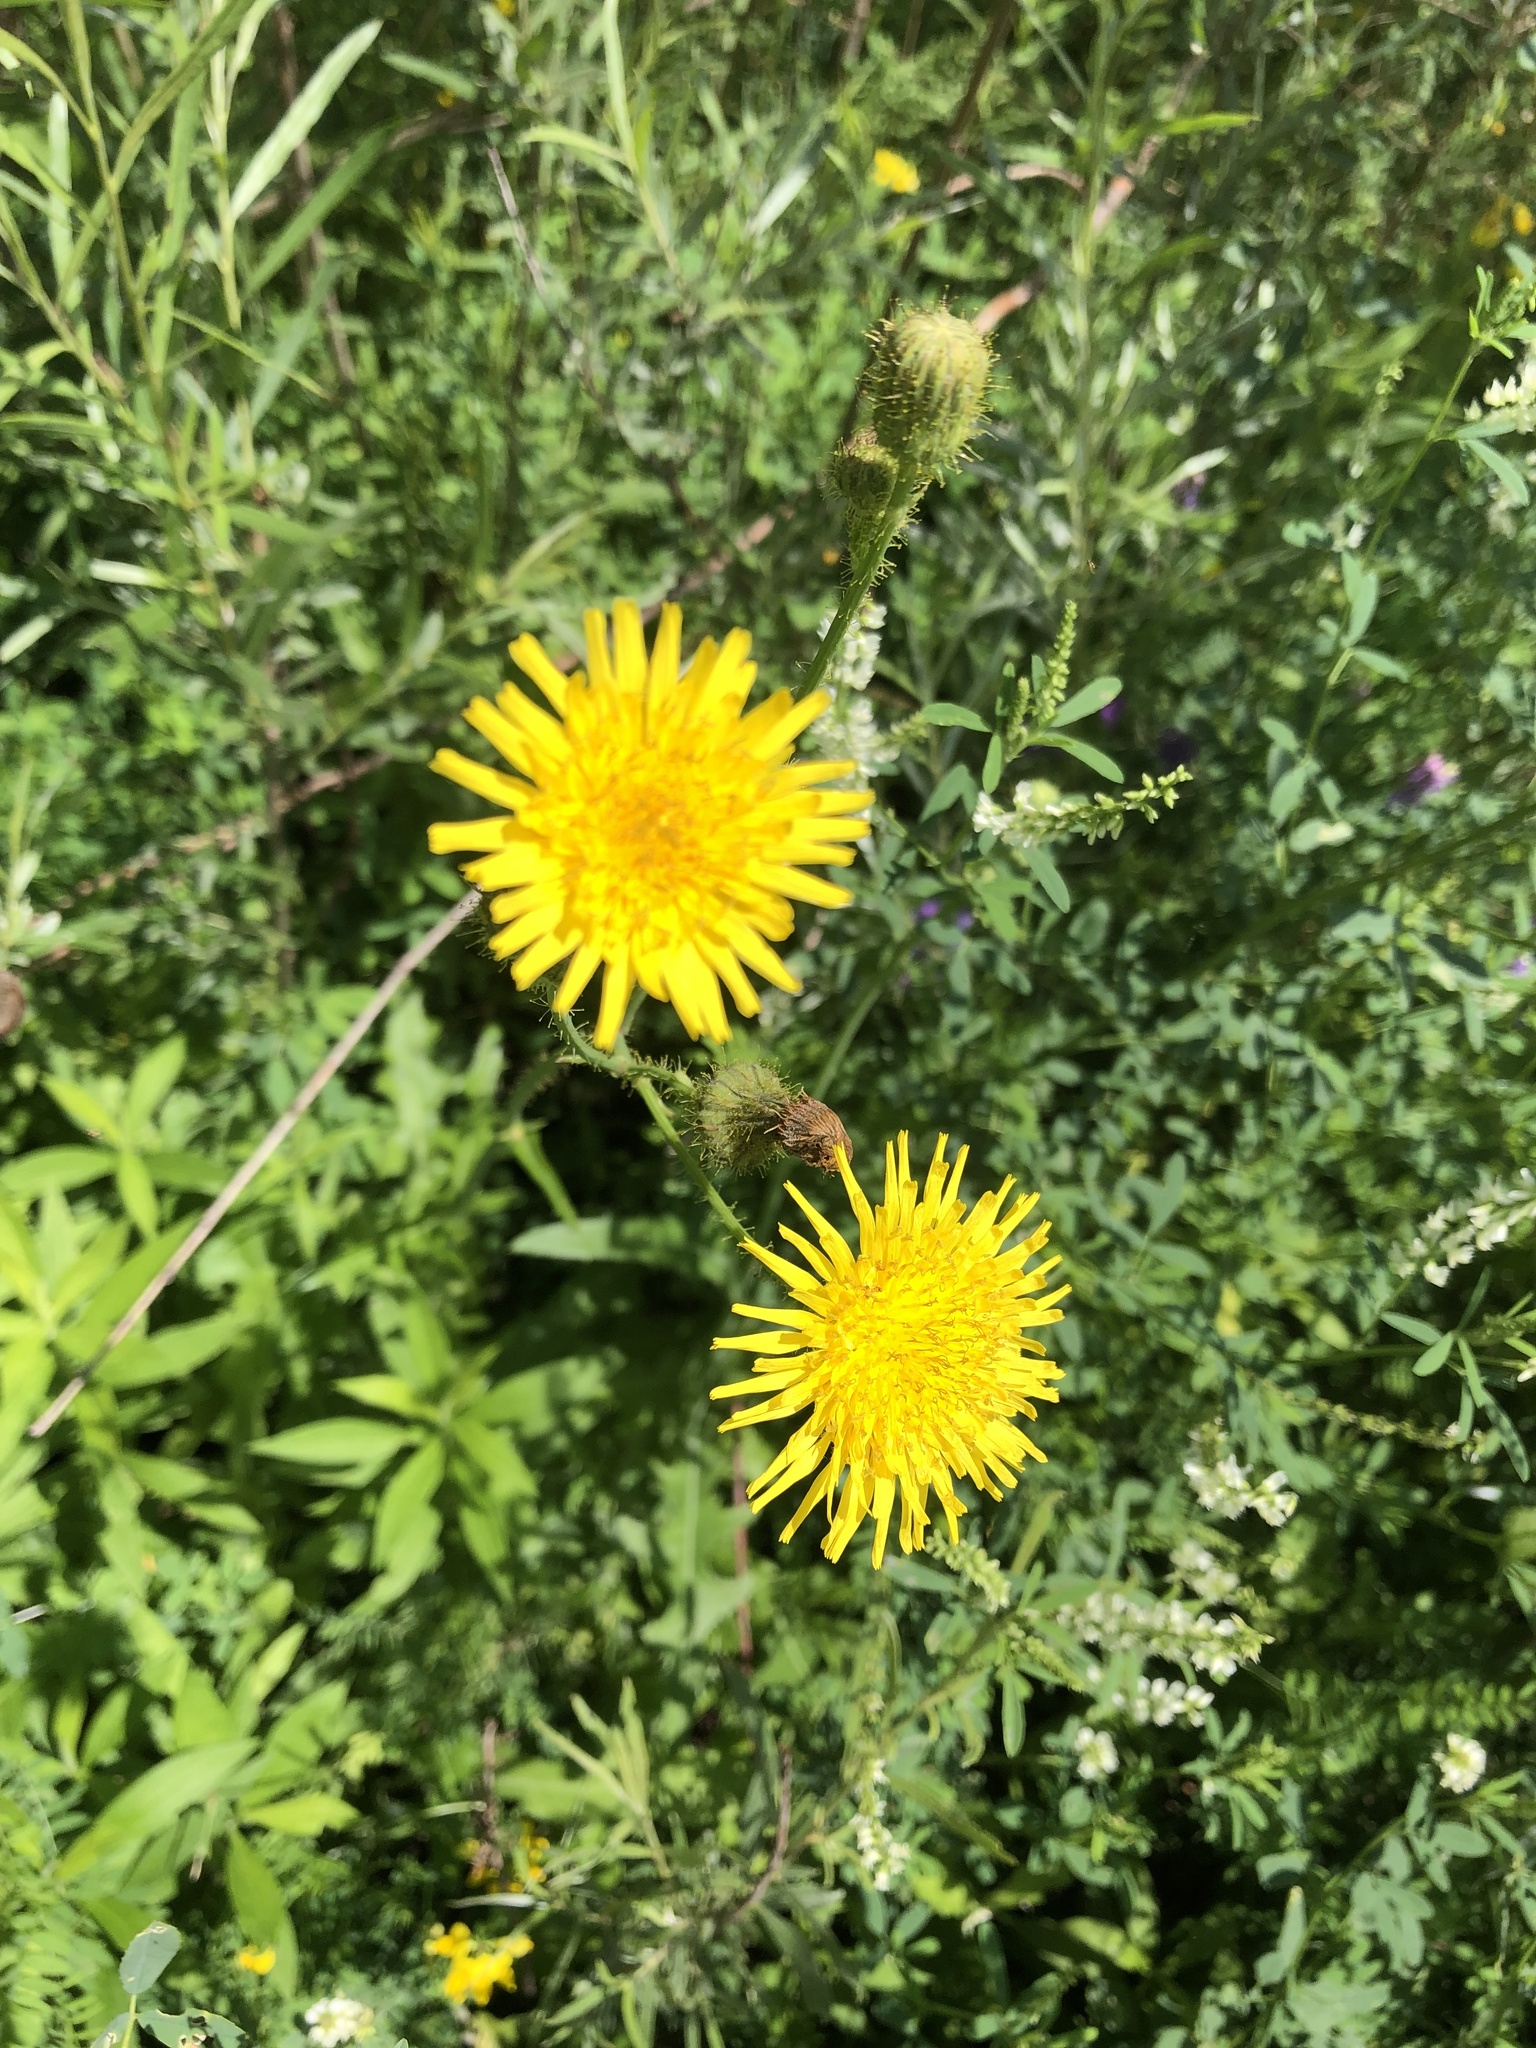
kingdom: Plantae
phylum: Tracheophyta
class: Magnoliopsida
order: Asterales
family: Asteraceae
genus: Sonchus
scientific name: Sonchus arvensis
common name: Perennial sow-thistle
